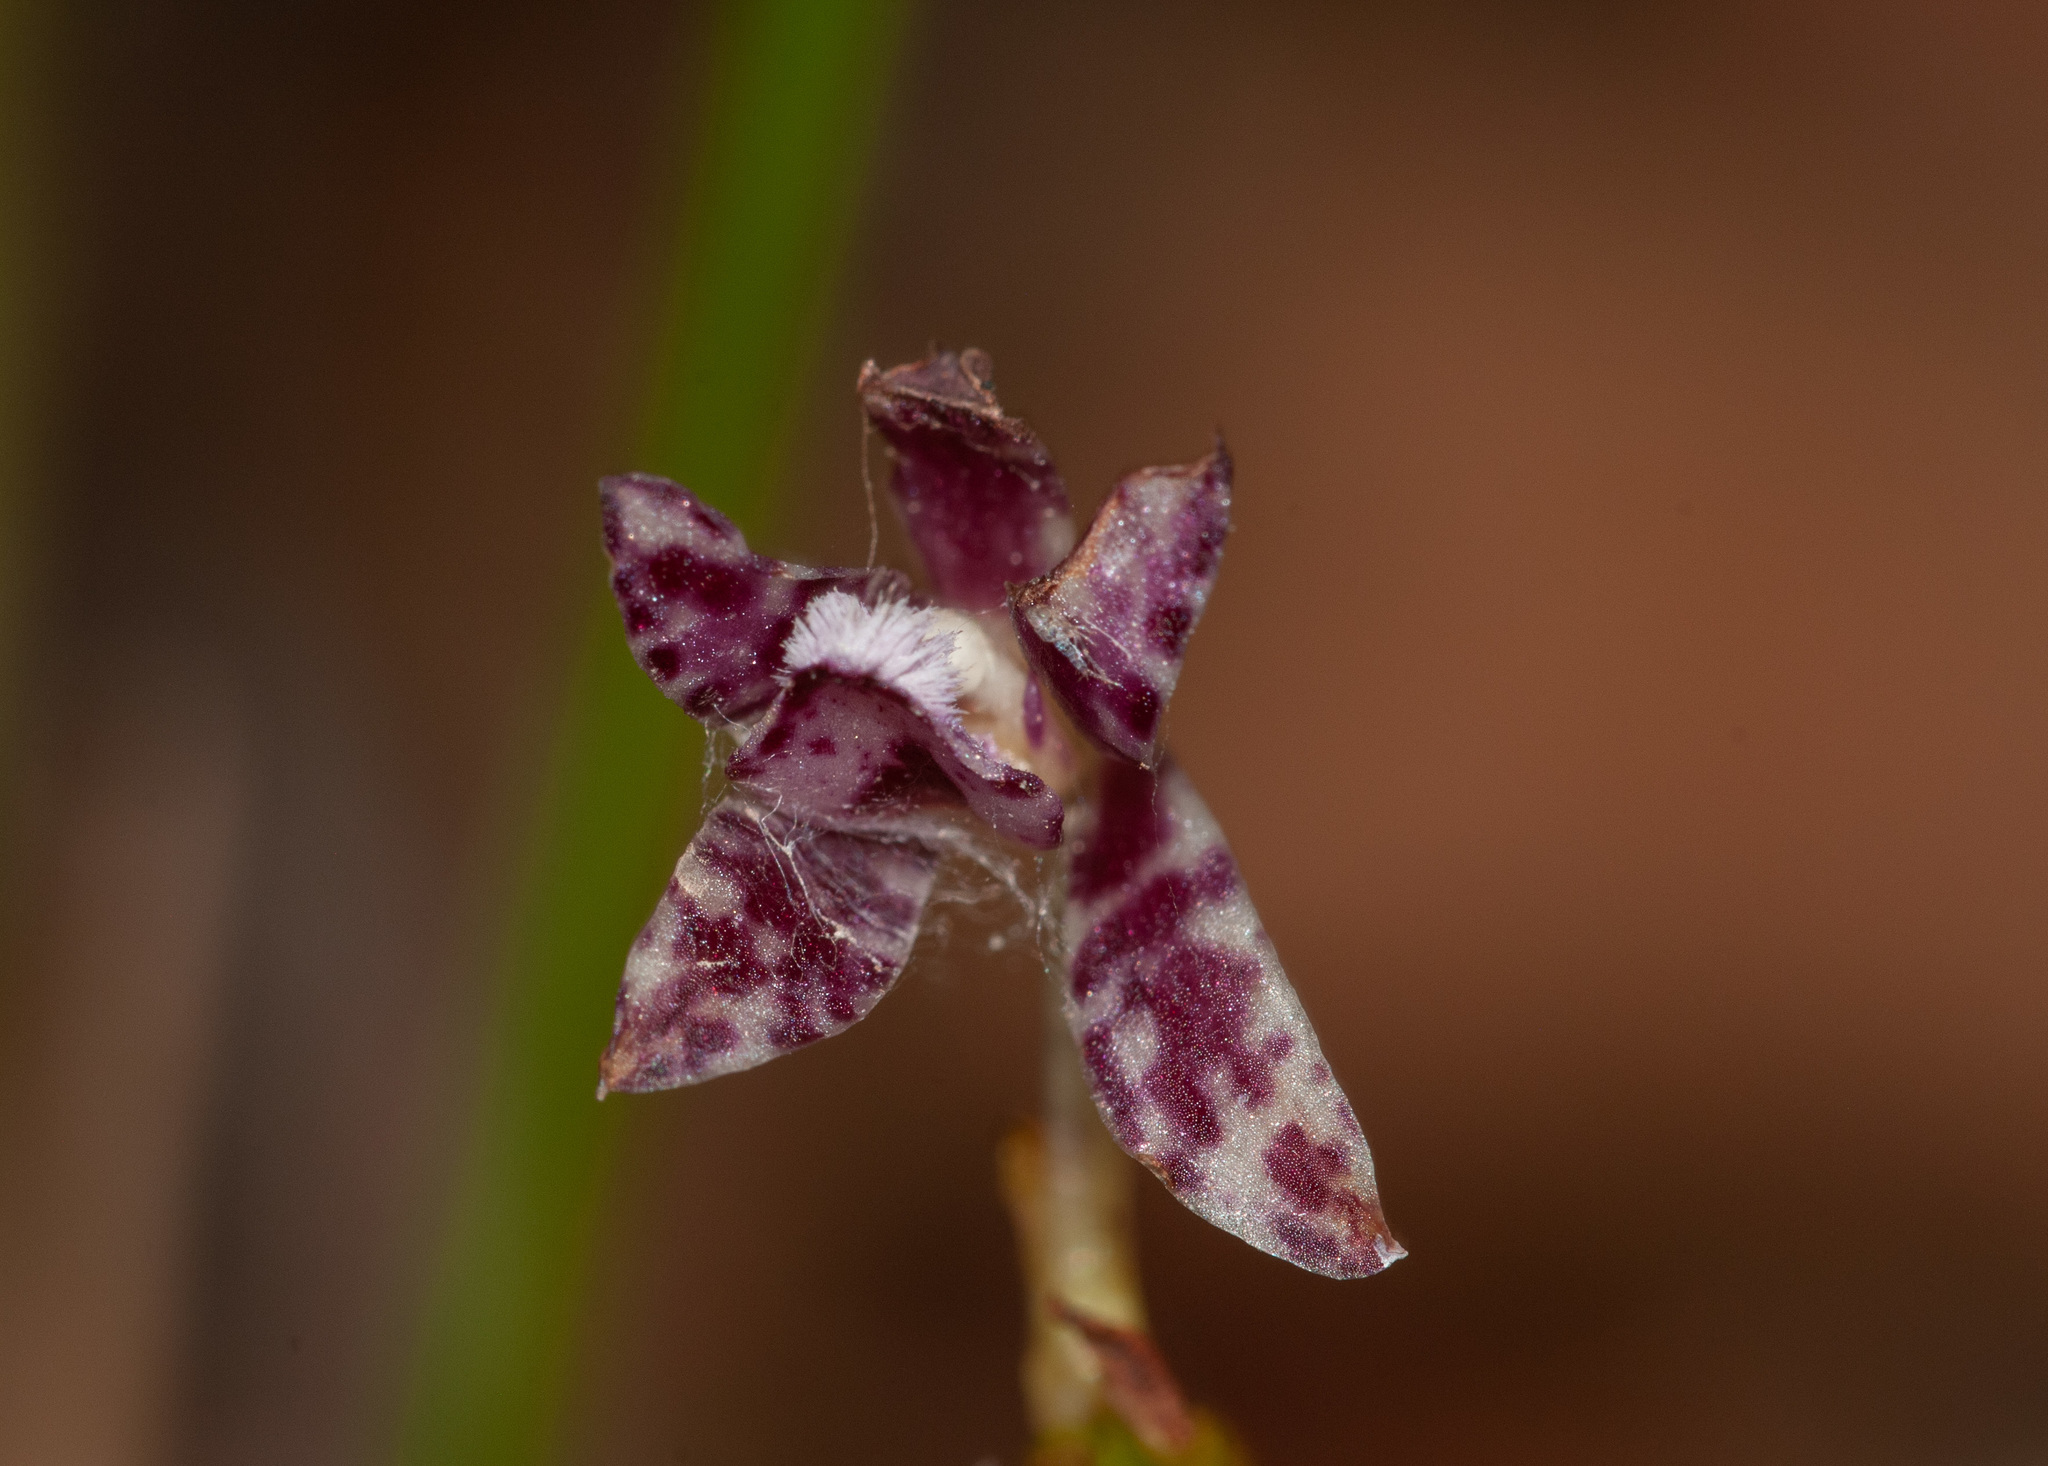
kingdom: Plantae
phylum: Tracheophyta
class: Liliopsida
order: Asparagales
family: Orchidaceae
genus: Dipodium
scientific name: Dipodium variegatum
